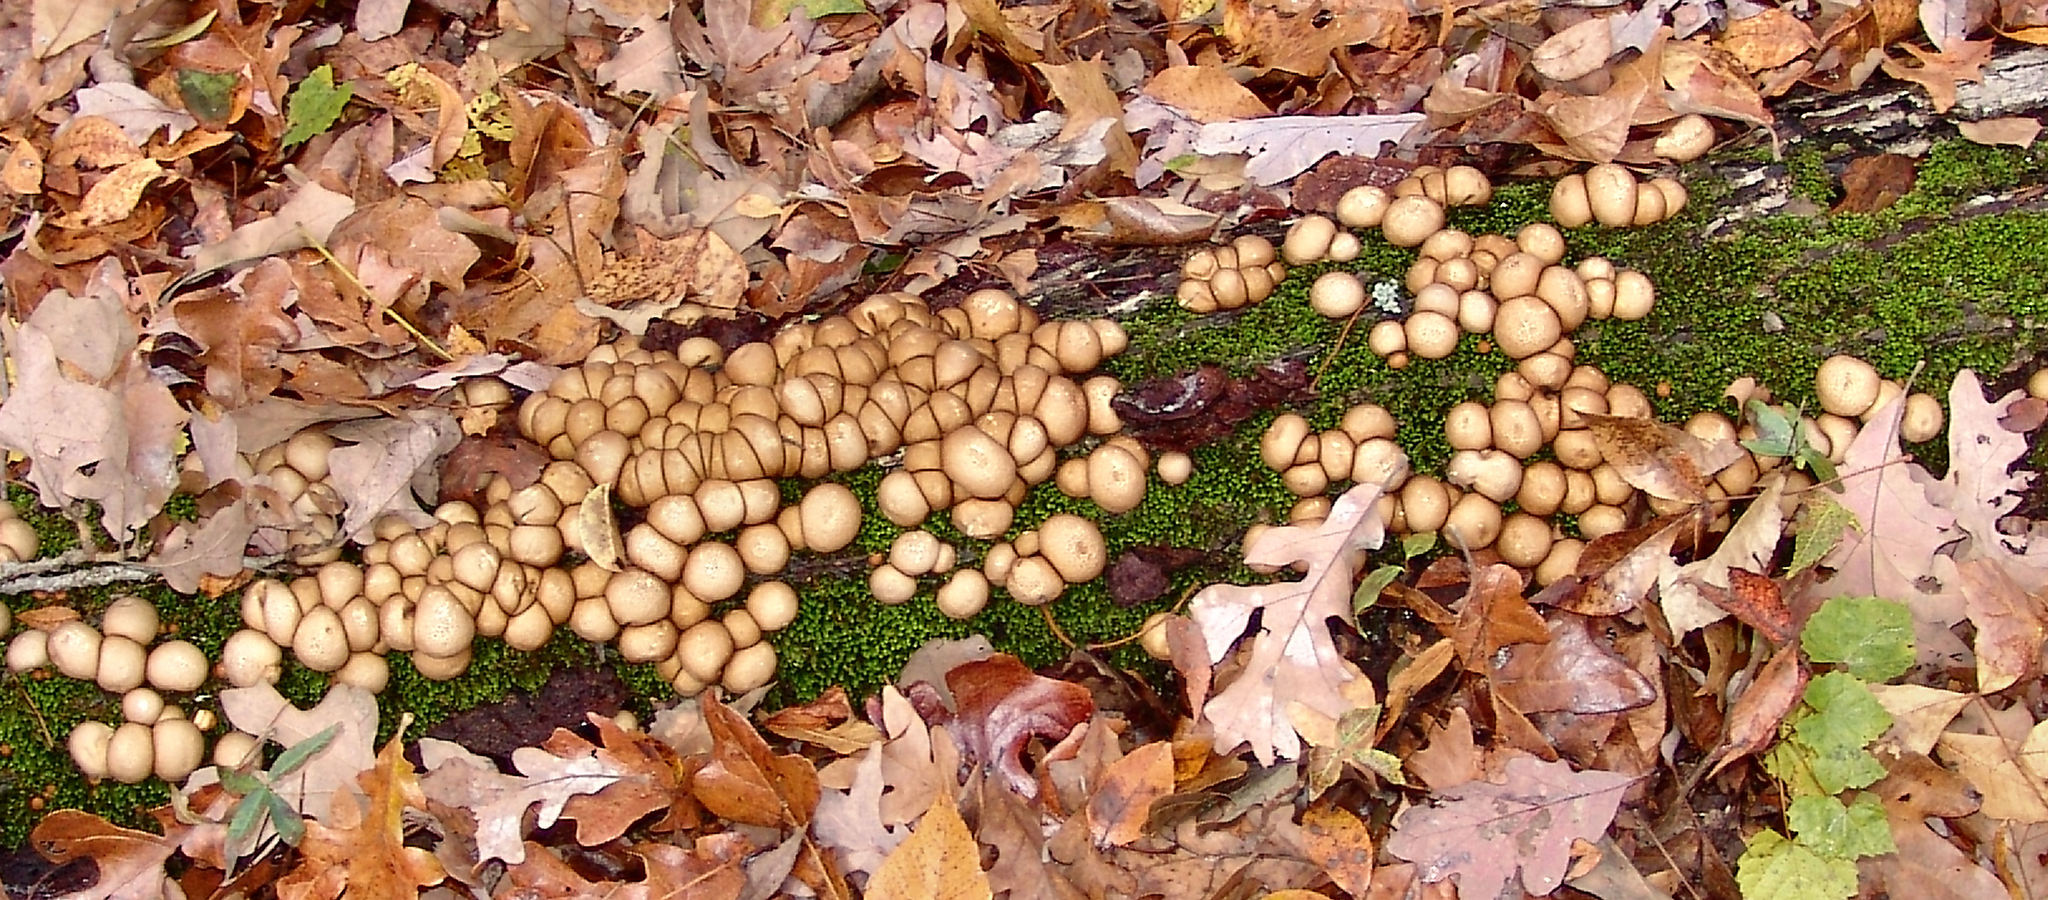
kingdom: Fungi
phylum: Basidiomycota
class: Agaricomycetes
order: Agaricales
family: Lycoperdaceae
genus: Apioperdon
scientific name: Apioperdon pyriforme
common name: Pear-shaped puffball
